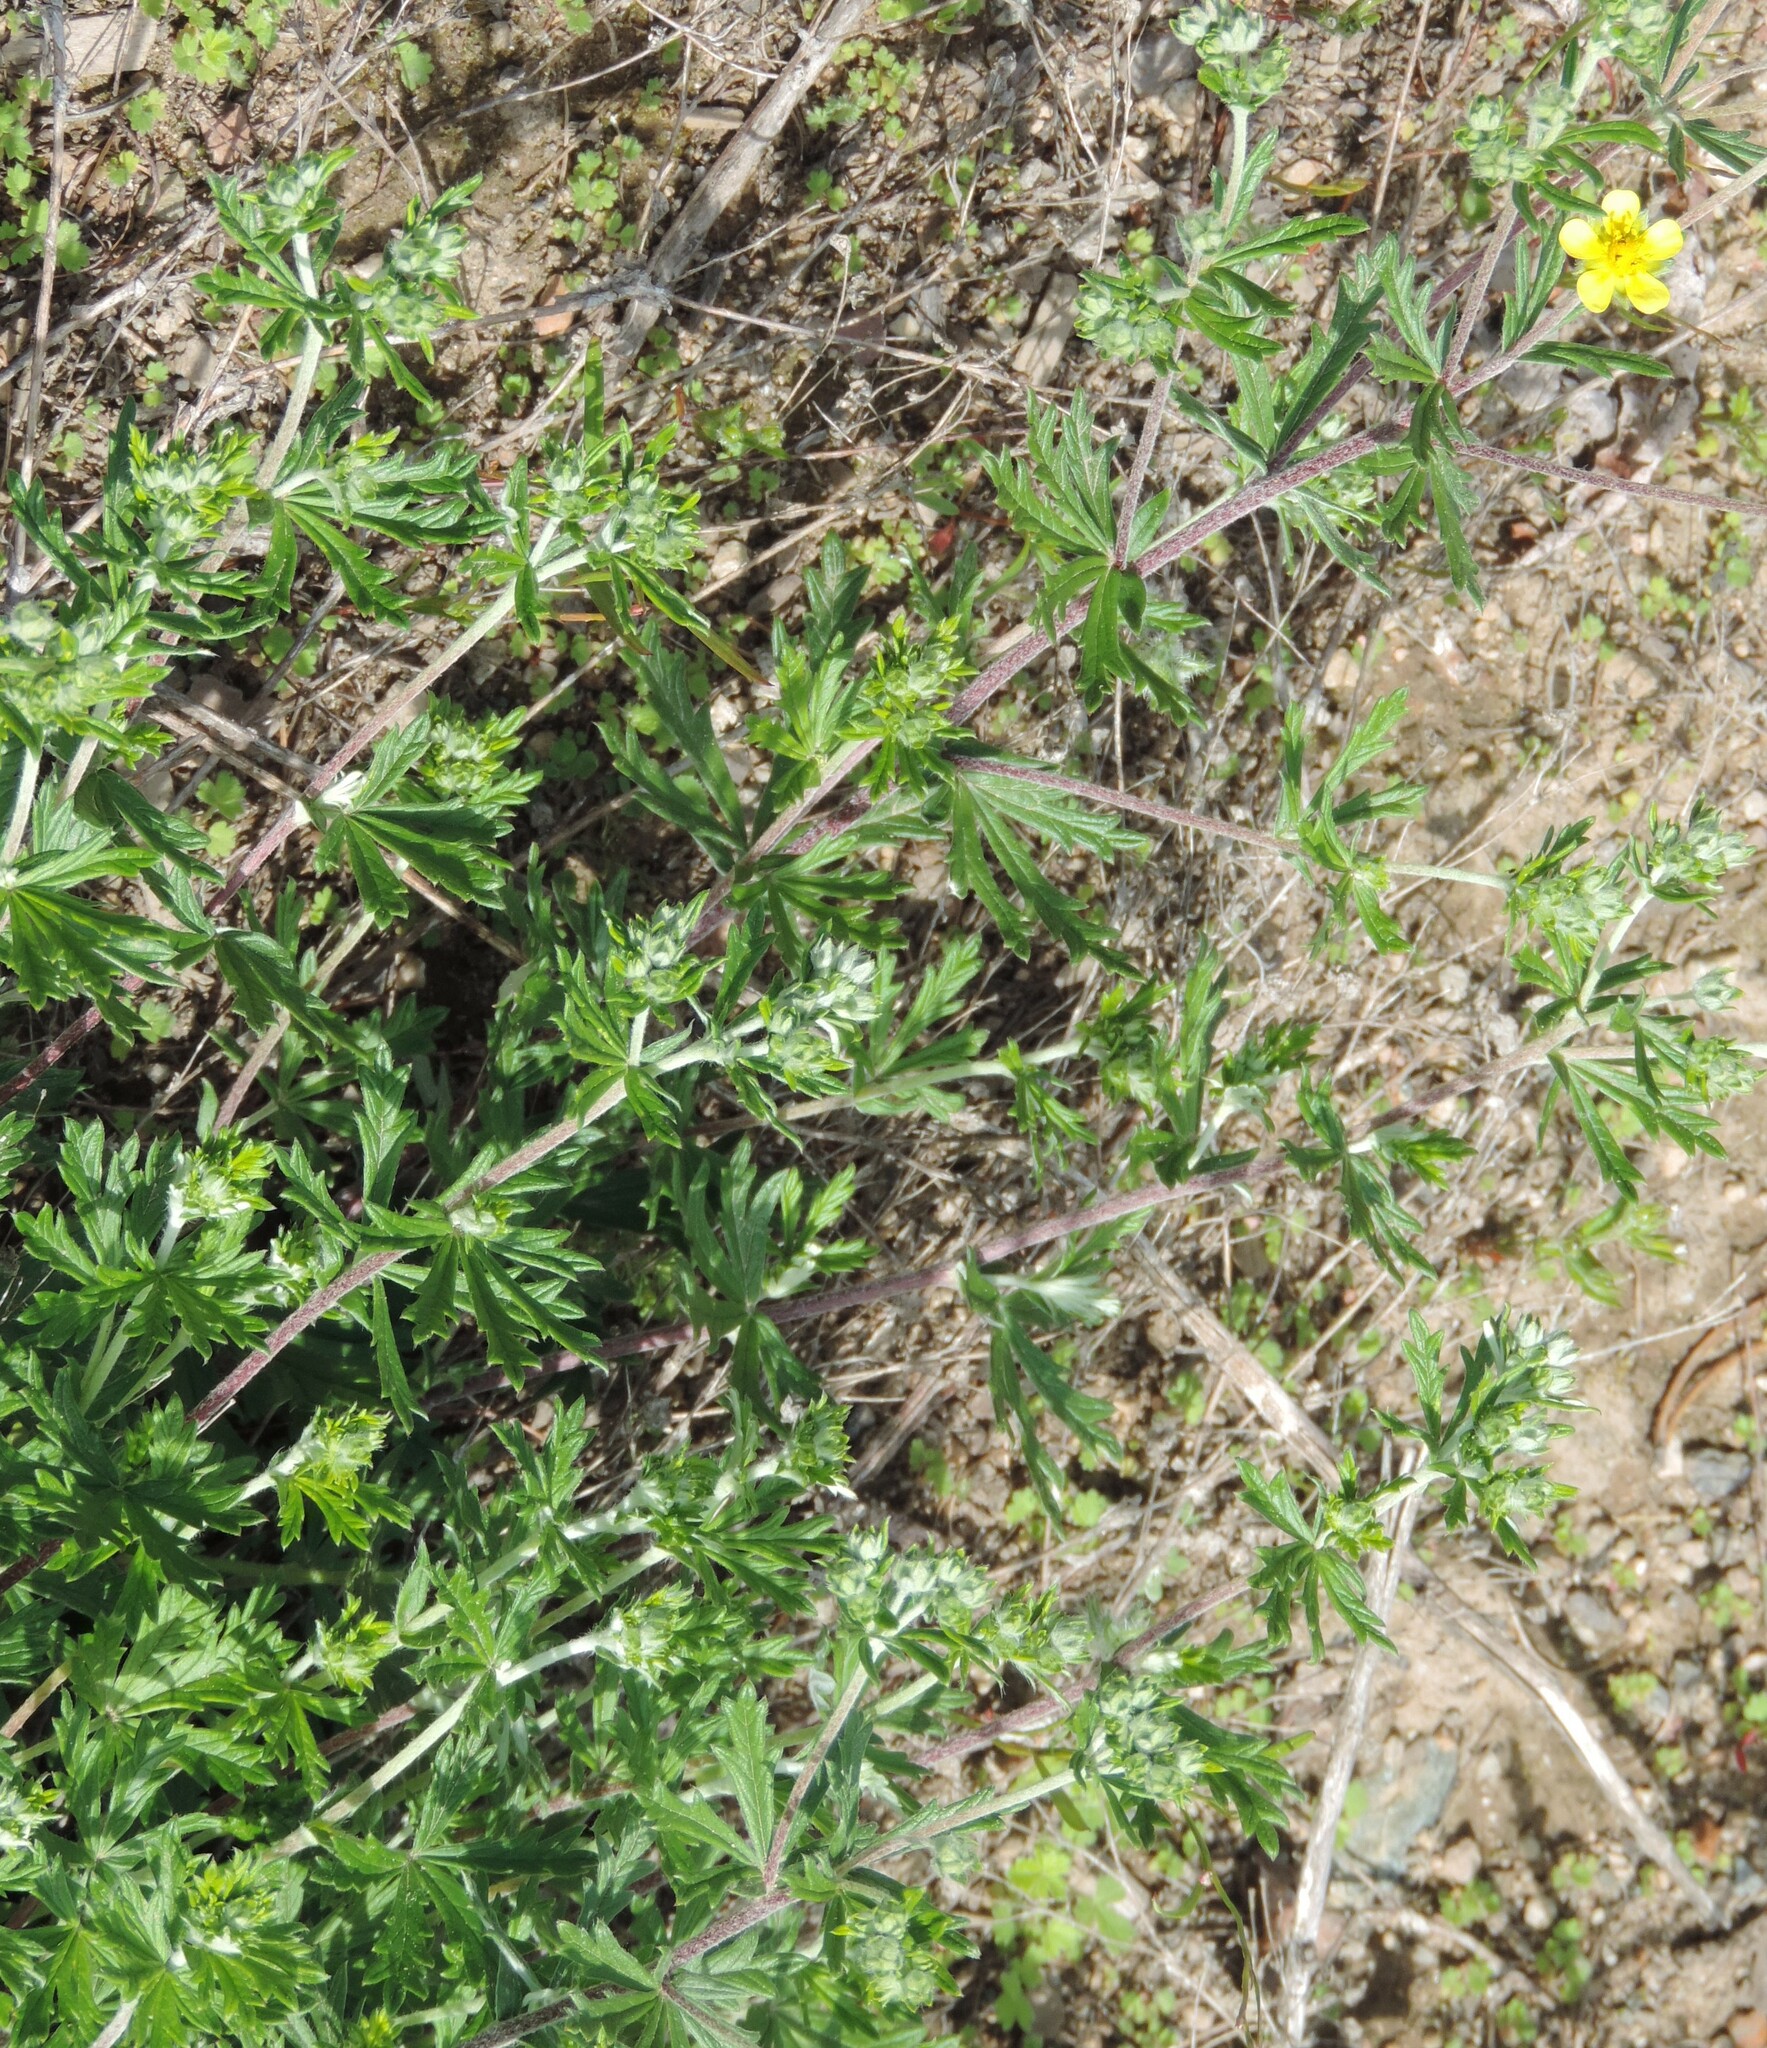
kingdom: Plantae
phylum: Tracheophyta
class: Magnoliopsida
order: Rosales
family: Rosaceae
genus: Potentilla
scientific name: Potentilla argentea
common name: Hoary cinquefoil
